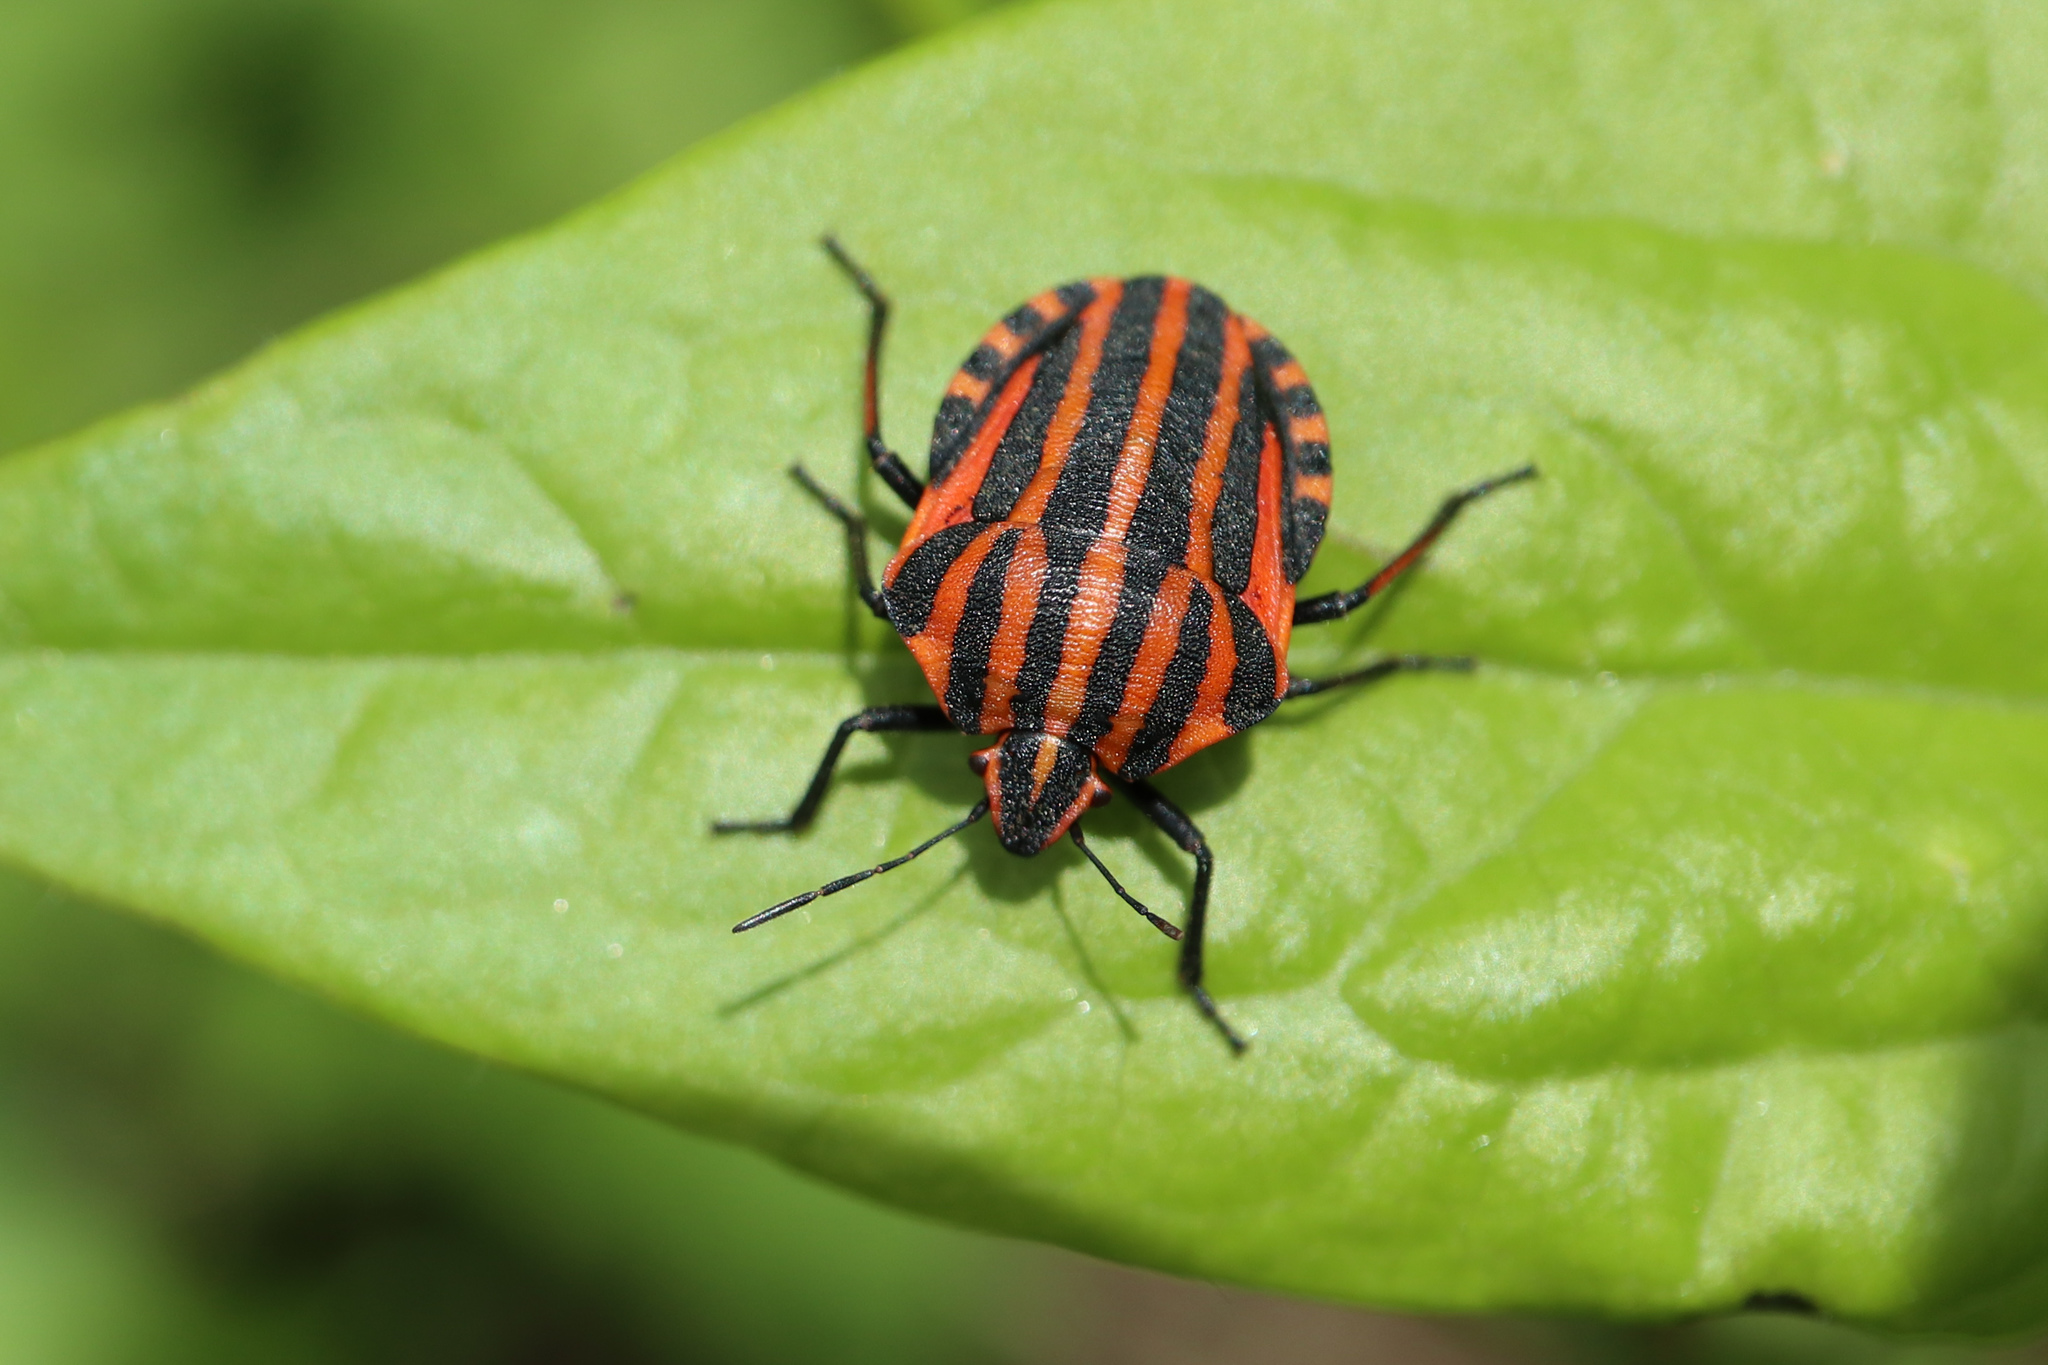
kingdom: Animalia
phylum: Arthropoda
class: Insecta
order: Hemiptera
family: Pentatomidae
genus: Graphosoma
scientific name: Graphosoma italicum
